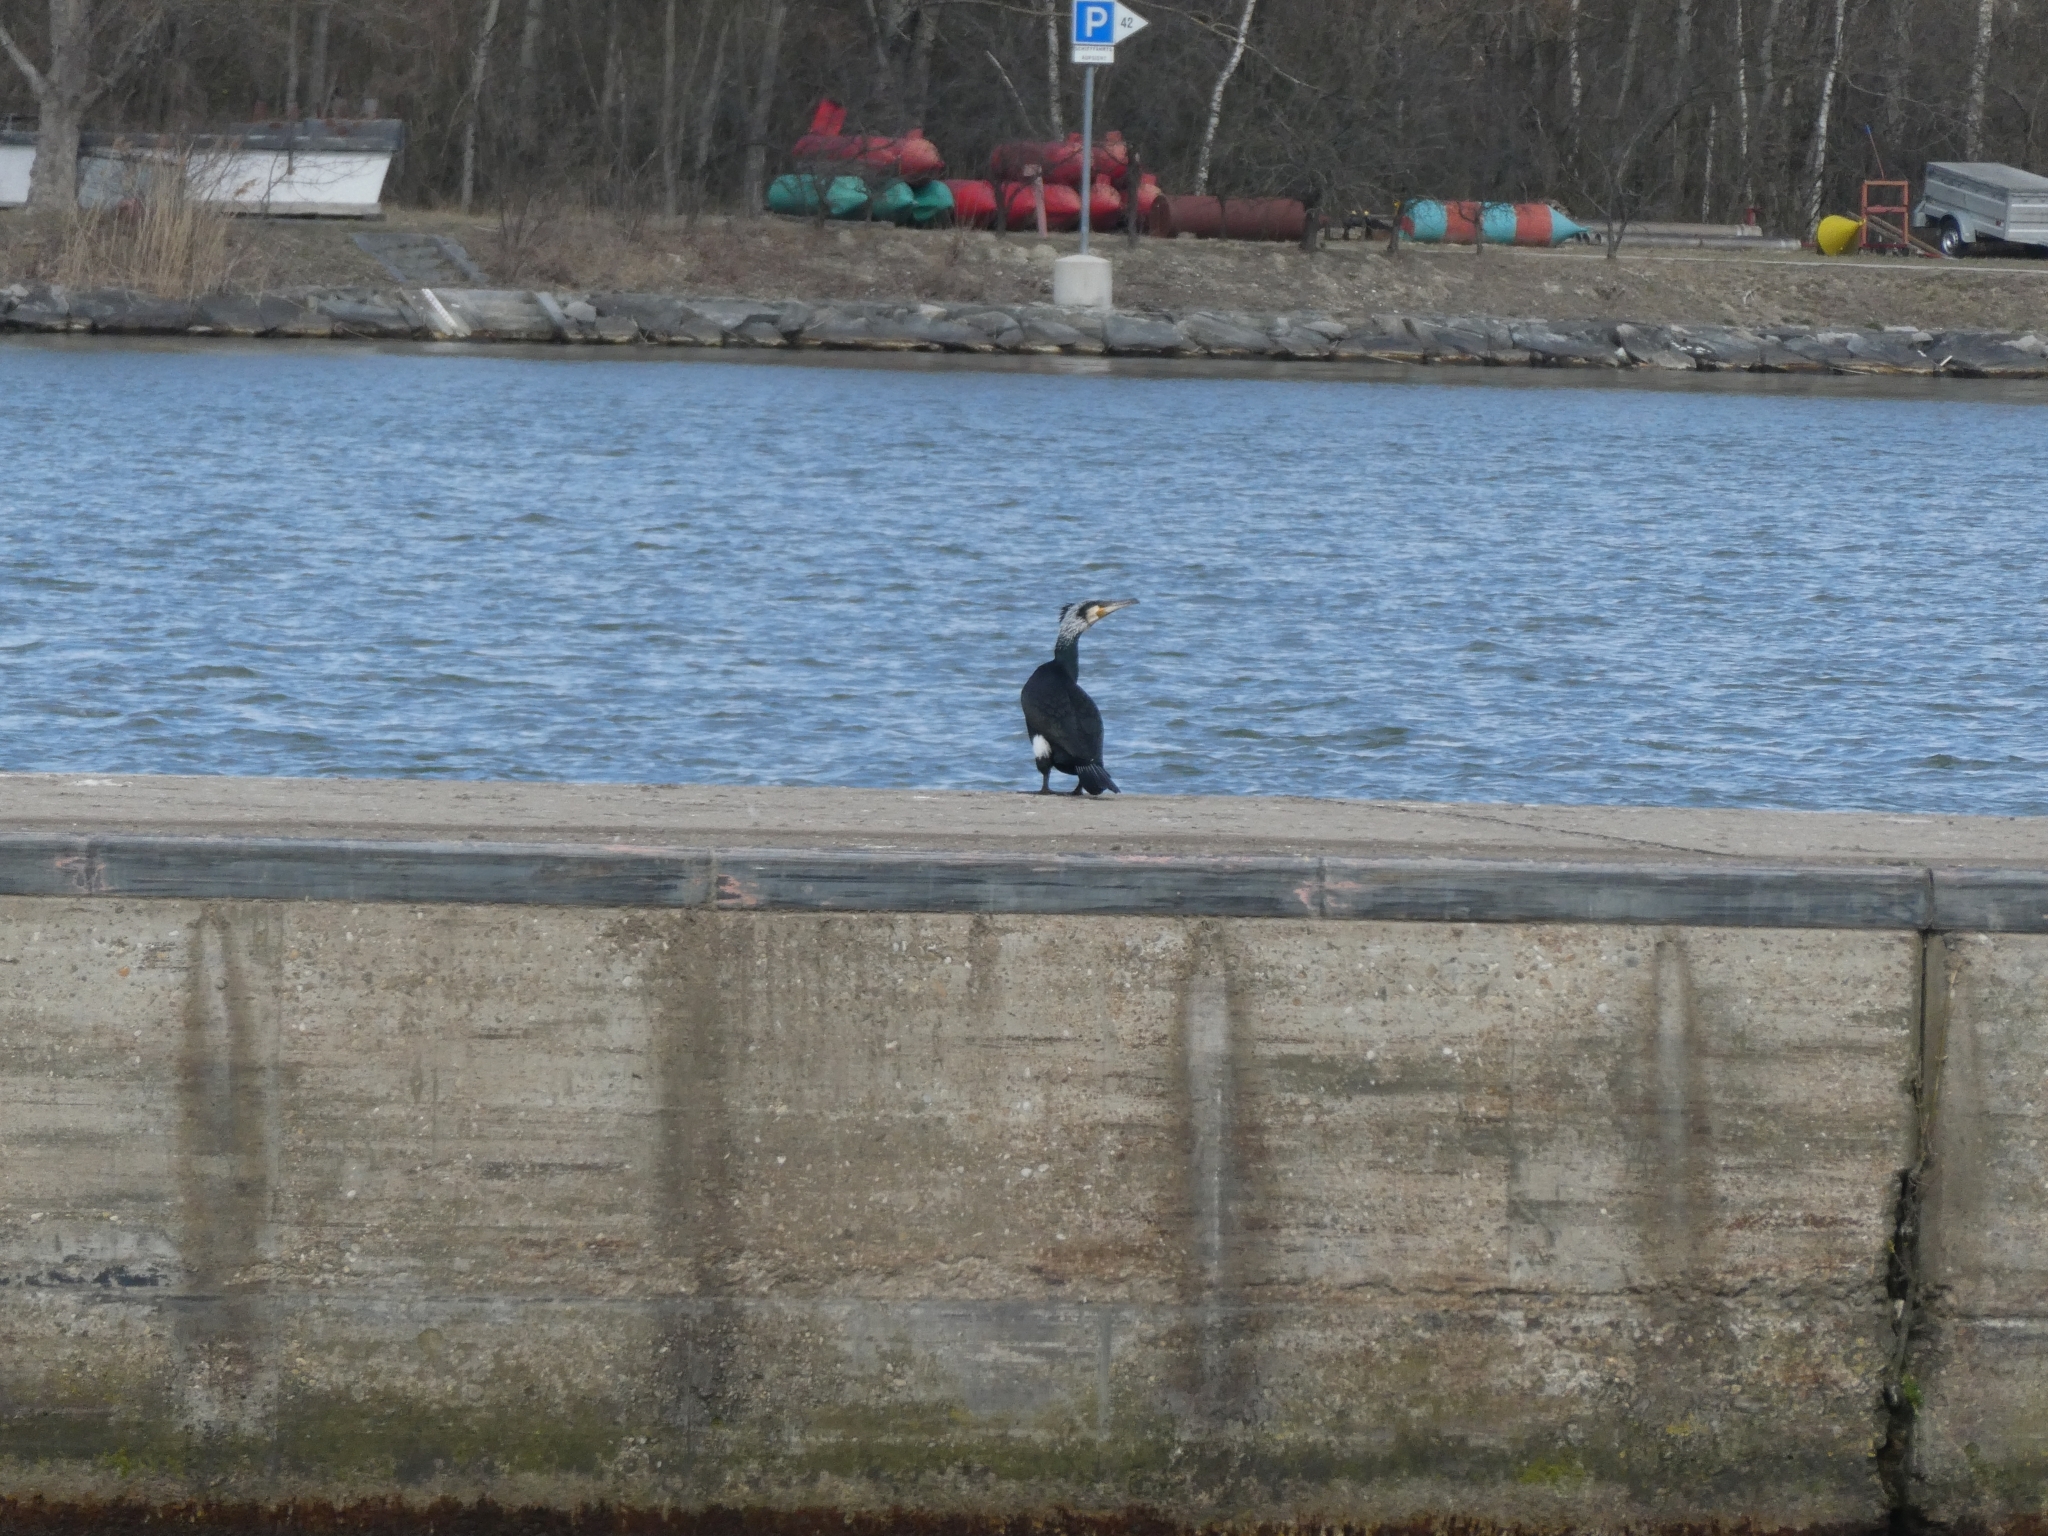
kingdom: Animalia
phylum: Chordata
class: Aves
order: Suliformes
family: Phalacrocoracidae
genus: Phalacrocorax
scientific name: Phalacrocorax carbo
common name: Great cormorant
